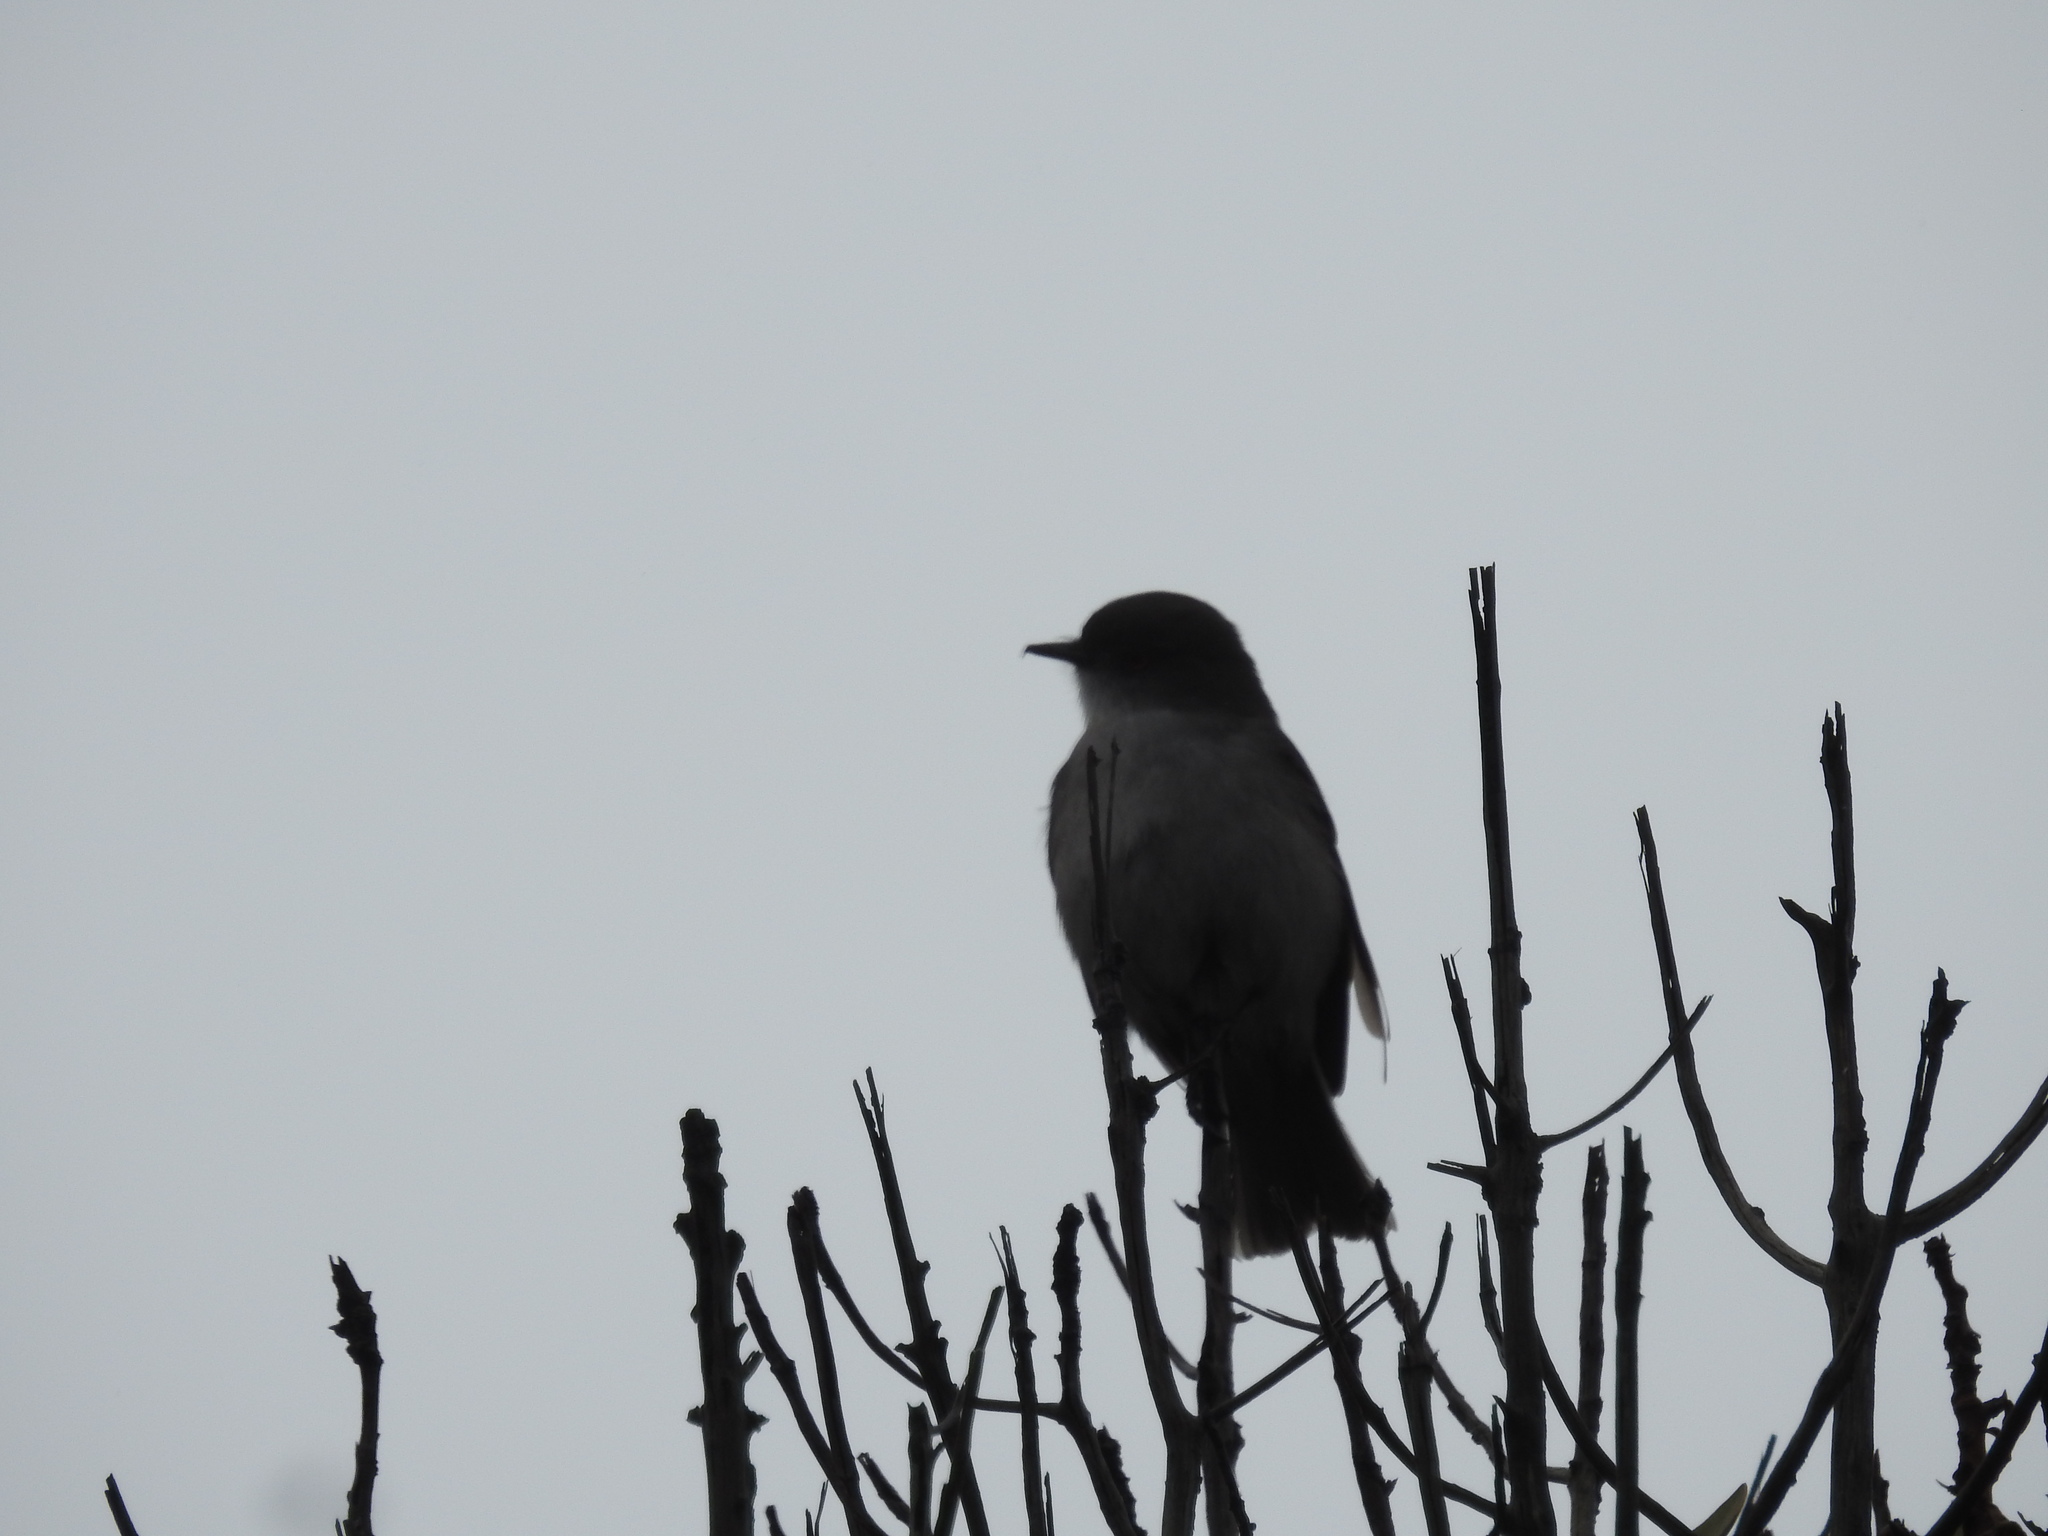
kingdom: Animalia
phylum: Chordata
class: Aves
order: Passeriformes
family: Tyrannidae
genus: Xolmis
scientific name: Xolmis pyrope
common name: Fire-eyed diucon
